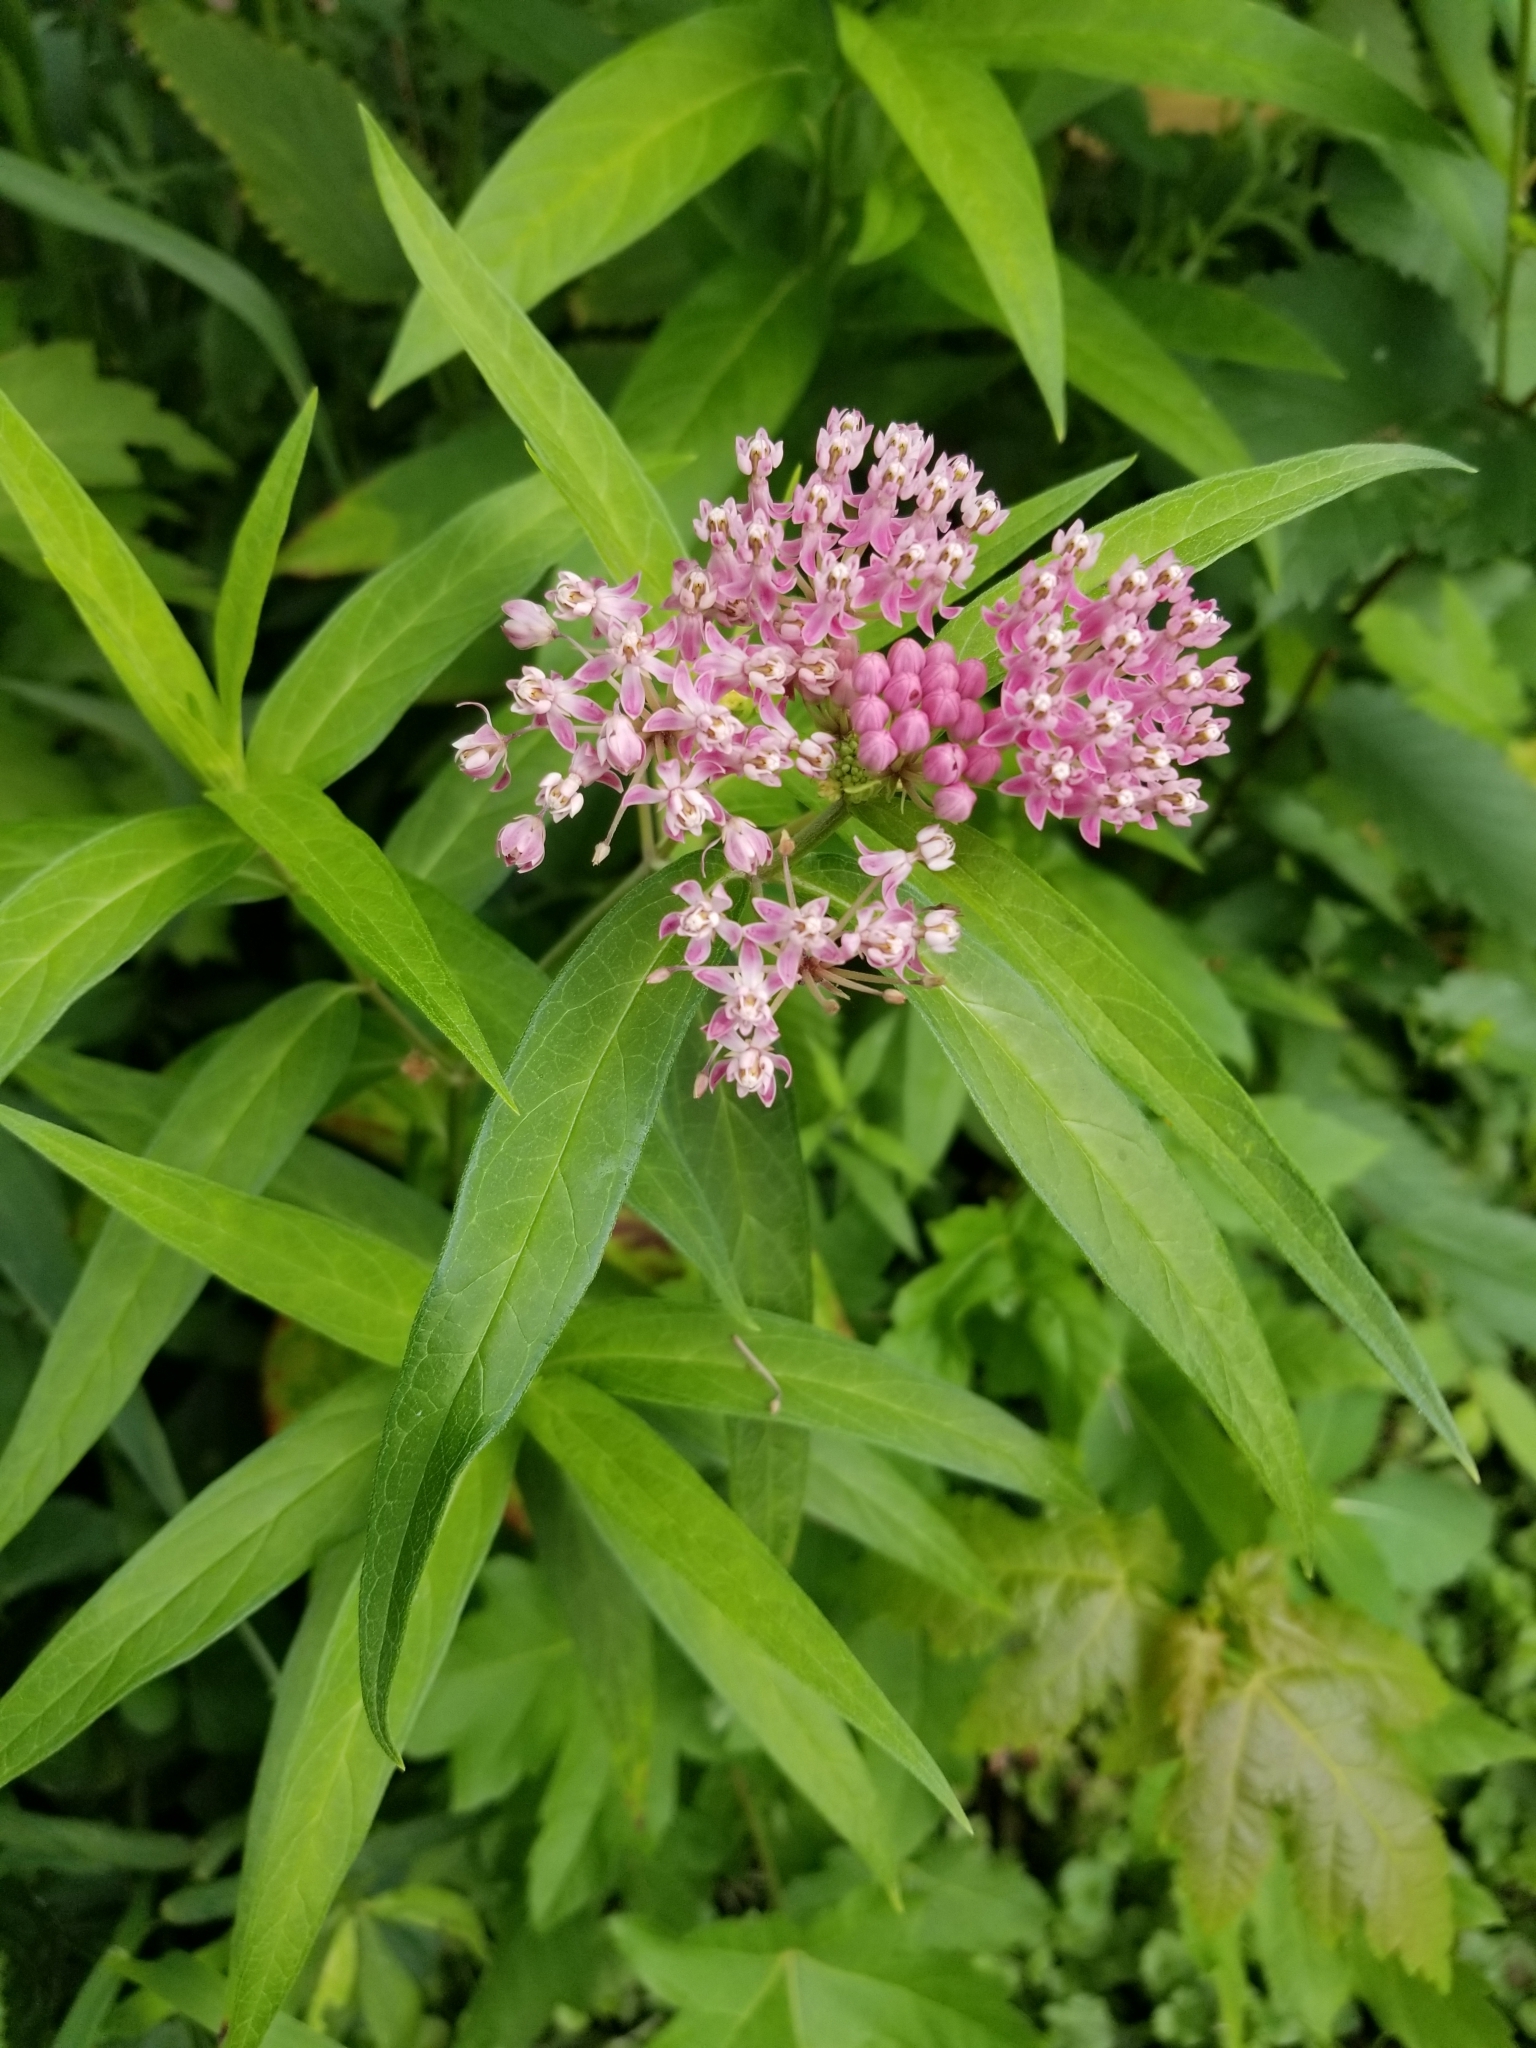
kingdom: Plantae
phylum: Tracheophyta
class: Magnoliopsida
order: Gentianales
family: Apocynaceae
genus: Asclepias
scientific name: Asclepias incarnata
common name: Swamp milkweed
